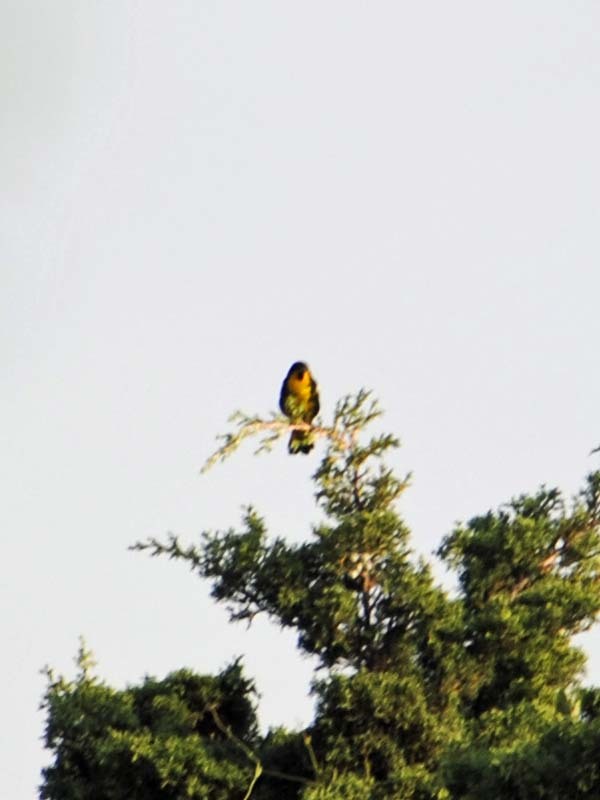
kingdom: Animalia
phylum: Chordata
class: Aves
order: Passeriformes
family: Icteridae
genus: Icterus
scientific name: Icterus abeillei
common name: Black-backed oriole
